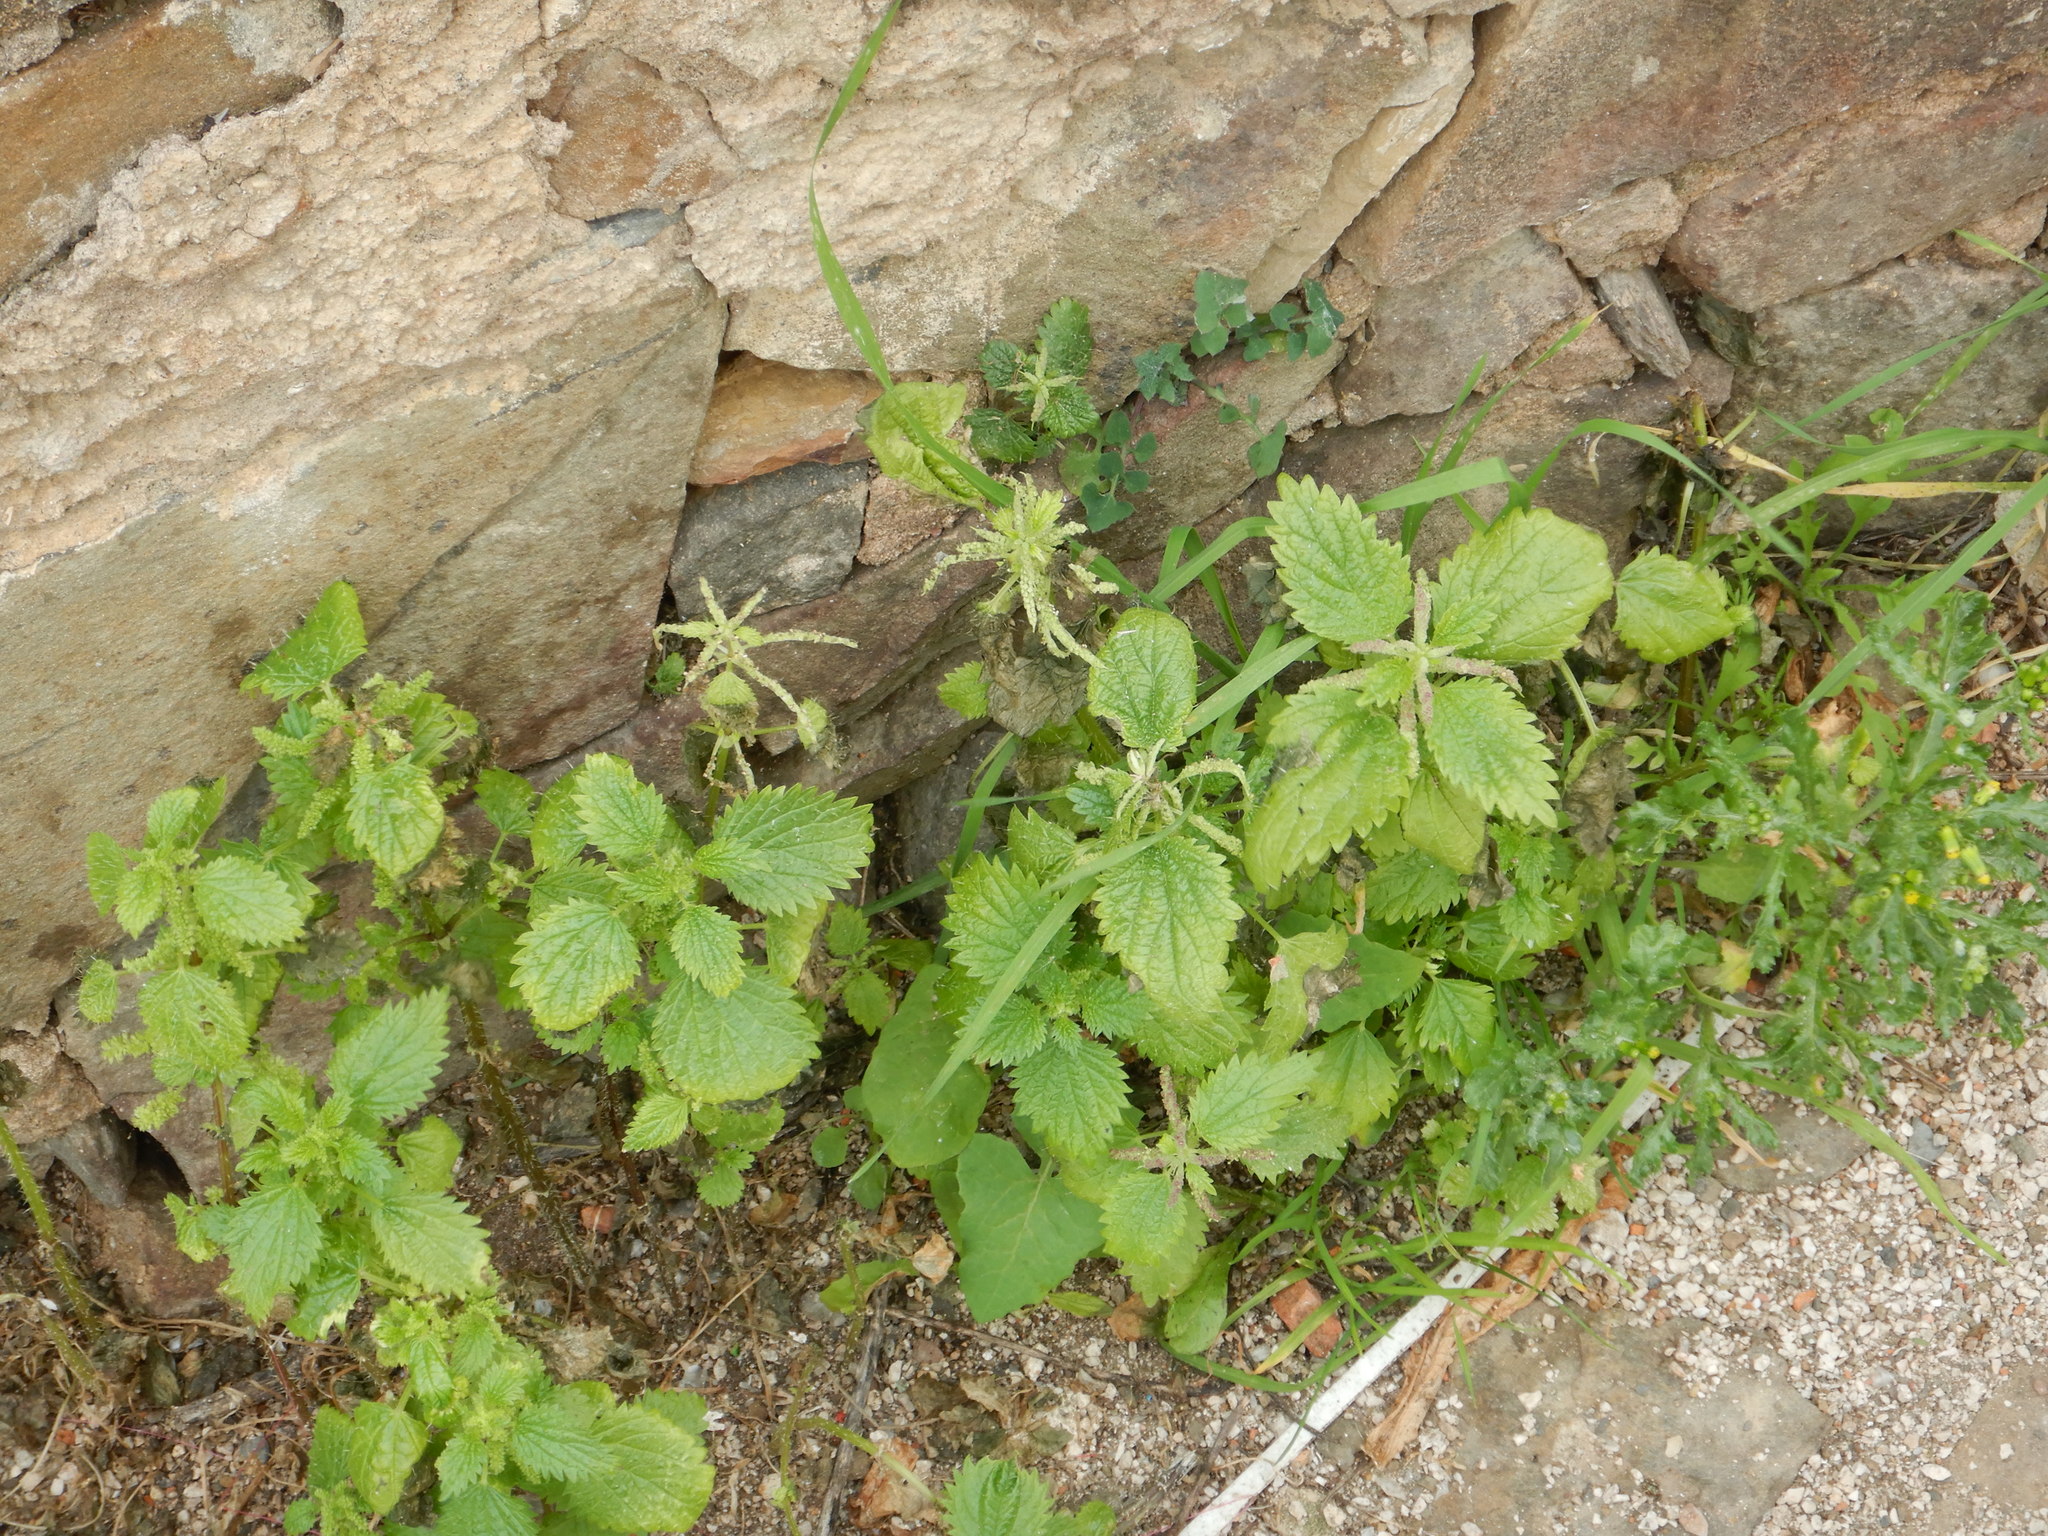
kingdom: Plantae
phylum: Tracheophyta
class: Magnoliopsida
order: Rosales
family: Urticaceae
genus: Urtica
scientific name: Urtica membranacea
